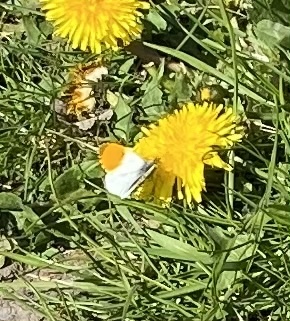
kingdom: Animalia
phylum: Arthropoda
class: Insecta
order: Lepidoptera
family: Pieridae
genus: Anthocharis
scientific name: Anthocharis cardamines
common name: Orange-tip
